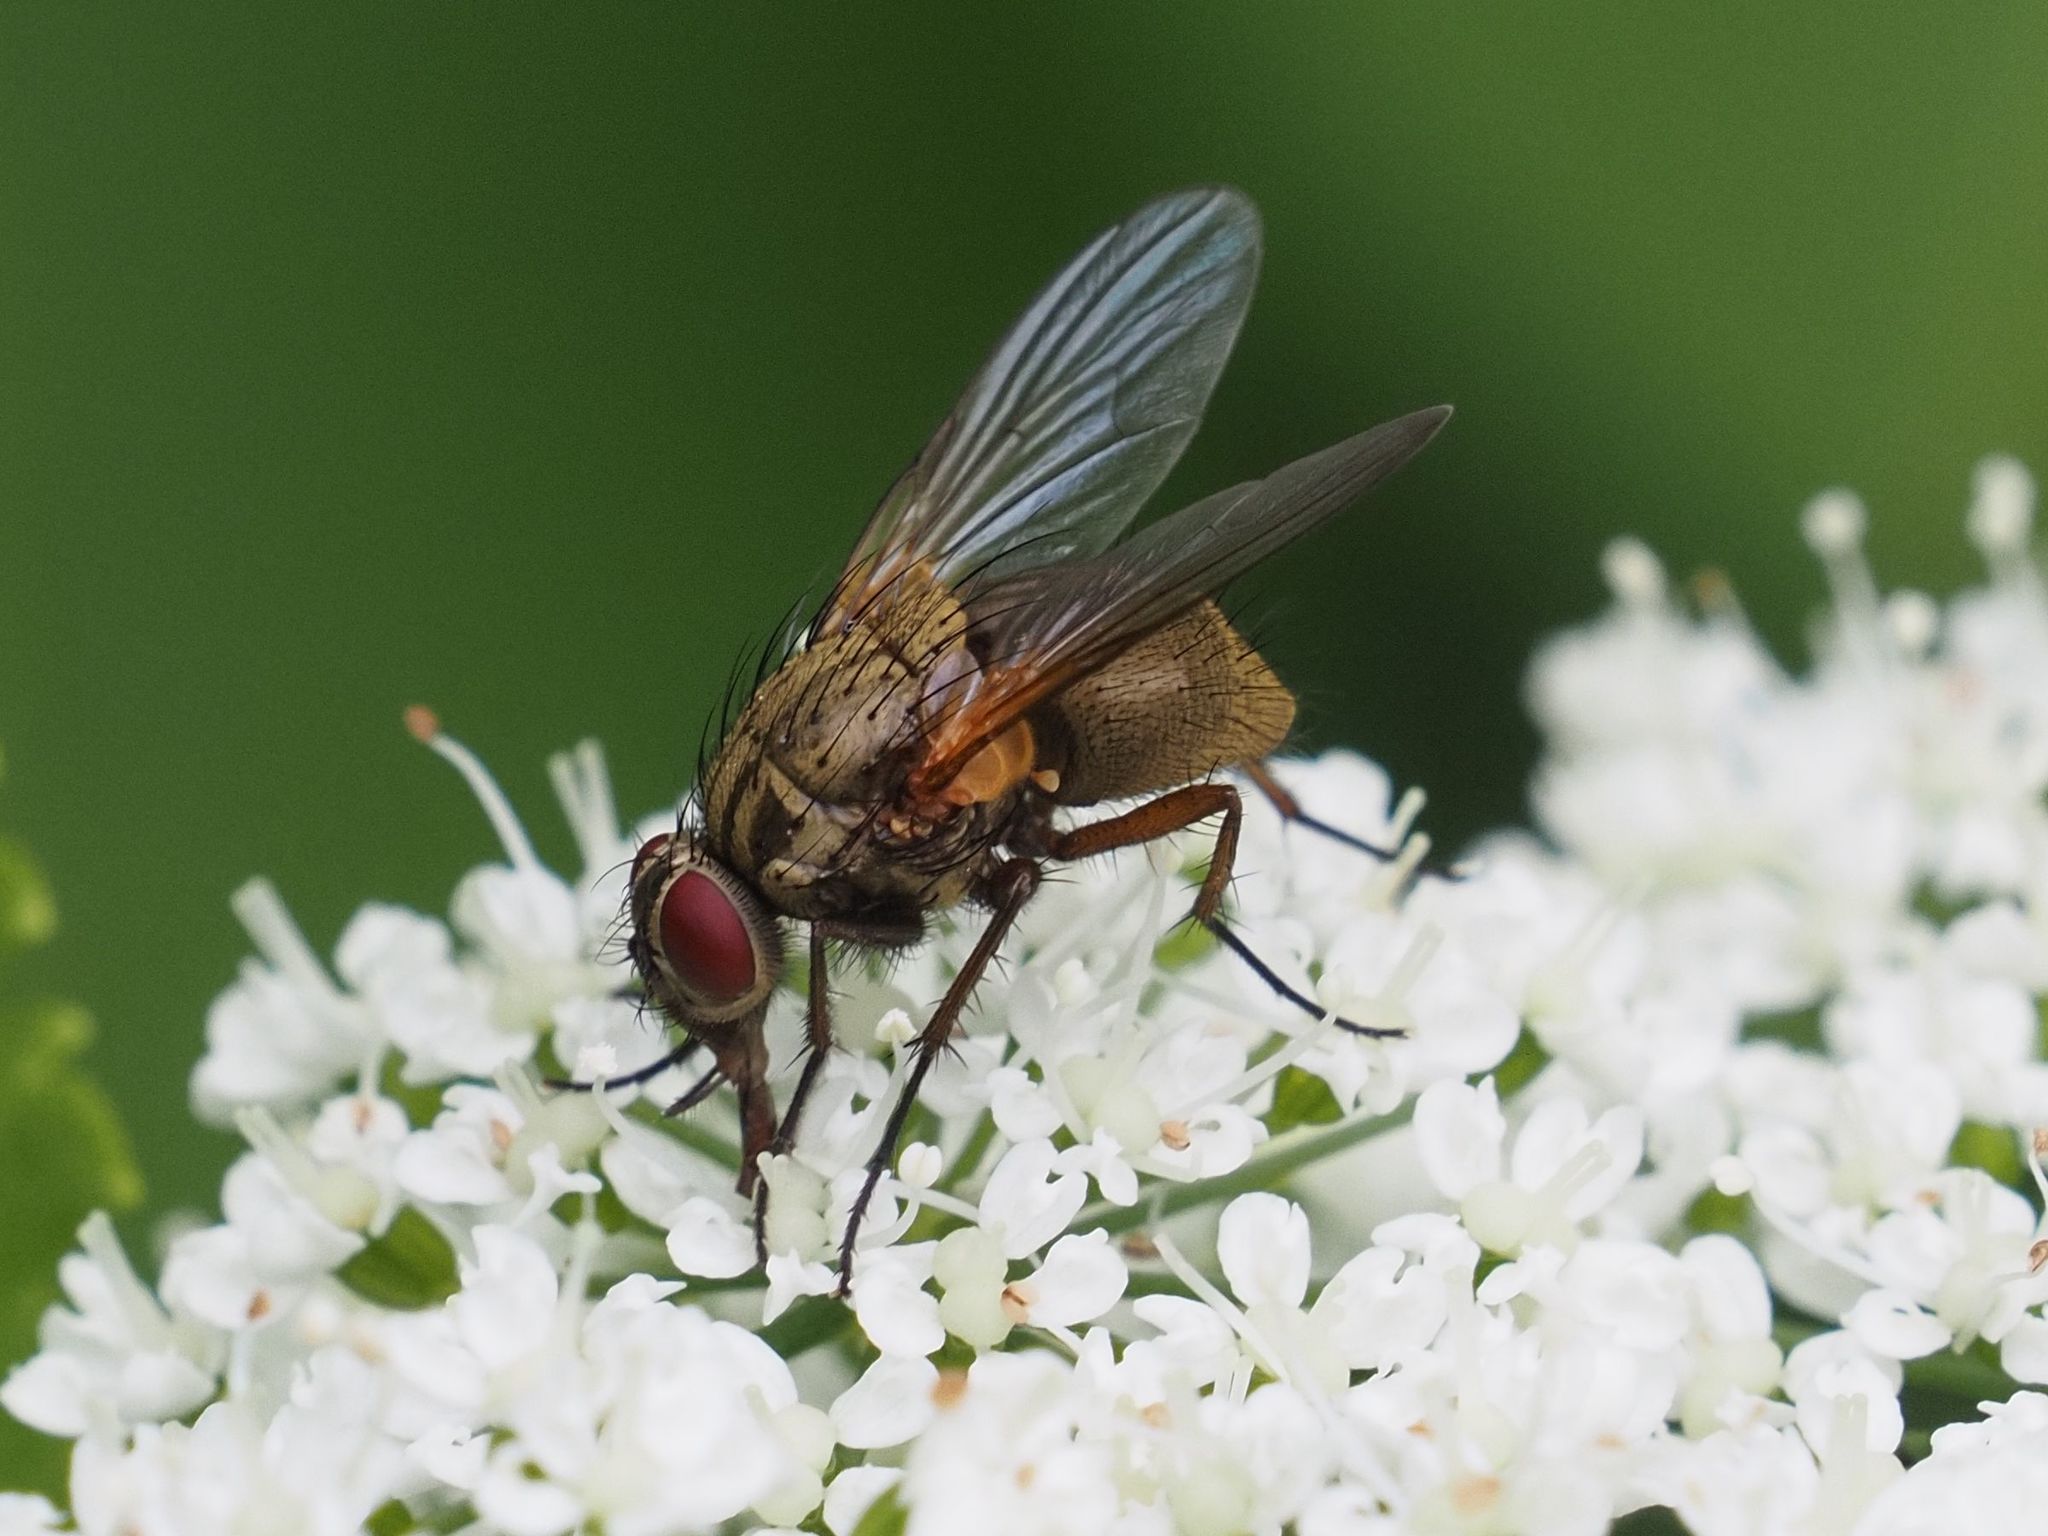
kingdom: Animalia
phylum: Arthropoda
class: Insecta
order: Diptera
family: Muscidae
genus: Phaonia
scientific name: Phaonia angelicae
